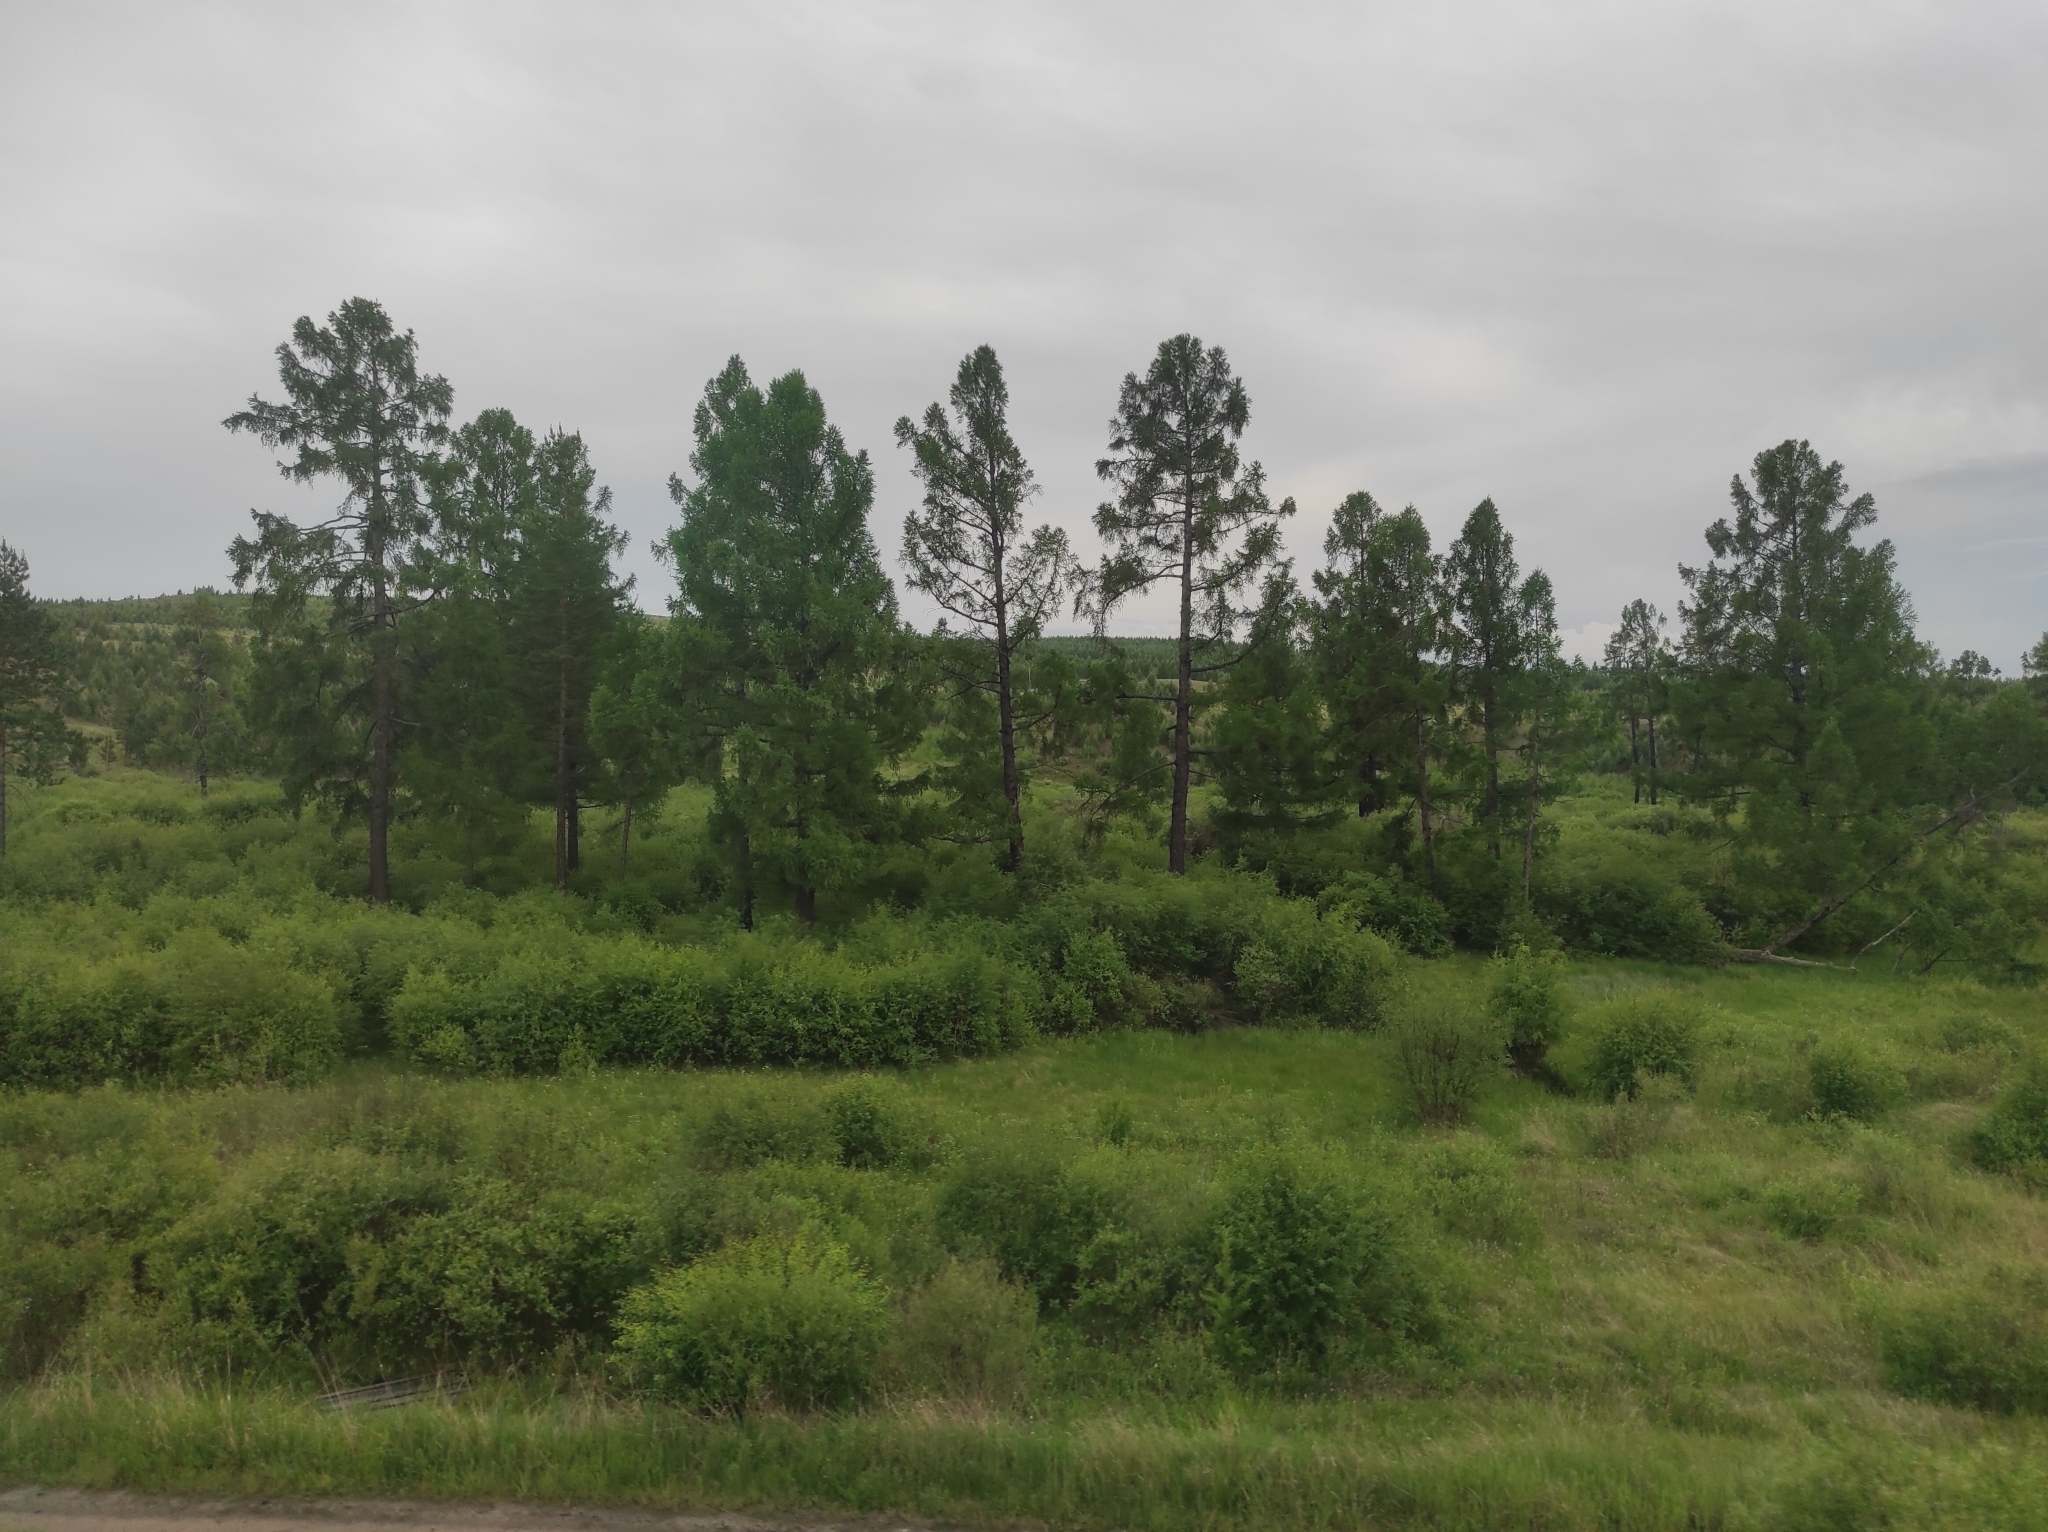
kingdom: Plantae
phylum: Tracheophyta
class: Pinopsida
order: Pinales
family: Pinaceae
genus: Pinus
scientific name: Pinus sylvestris
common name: Scots pine
